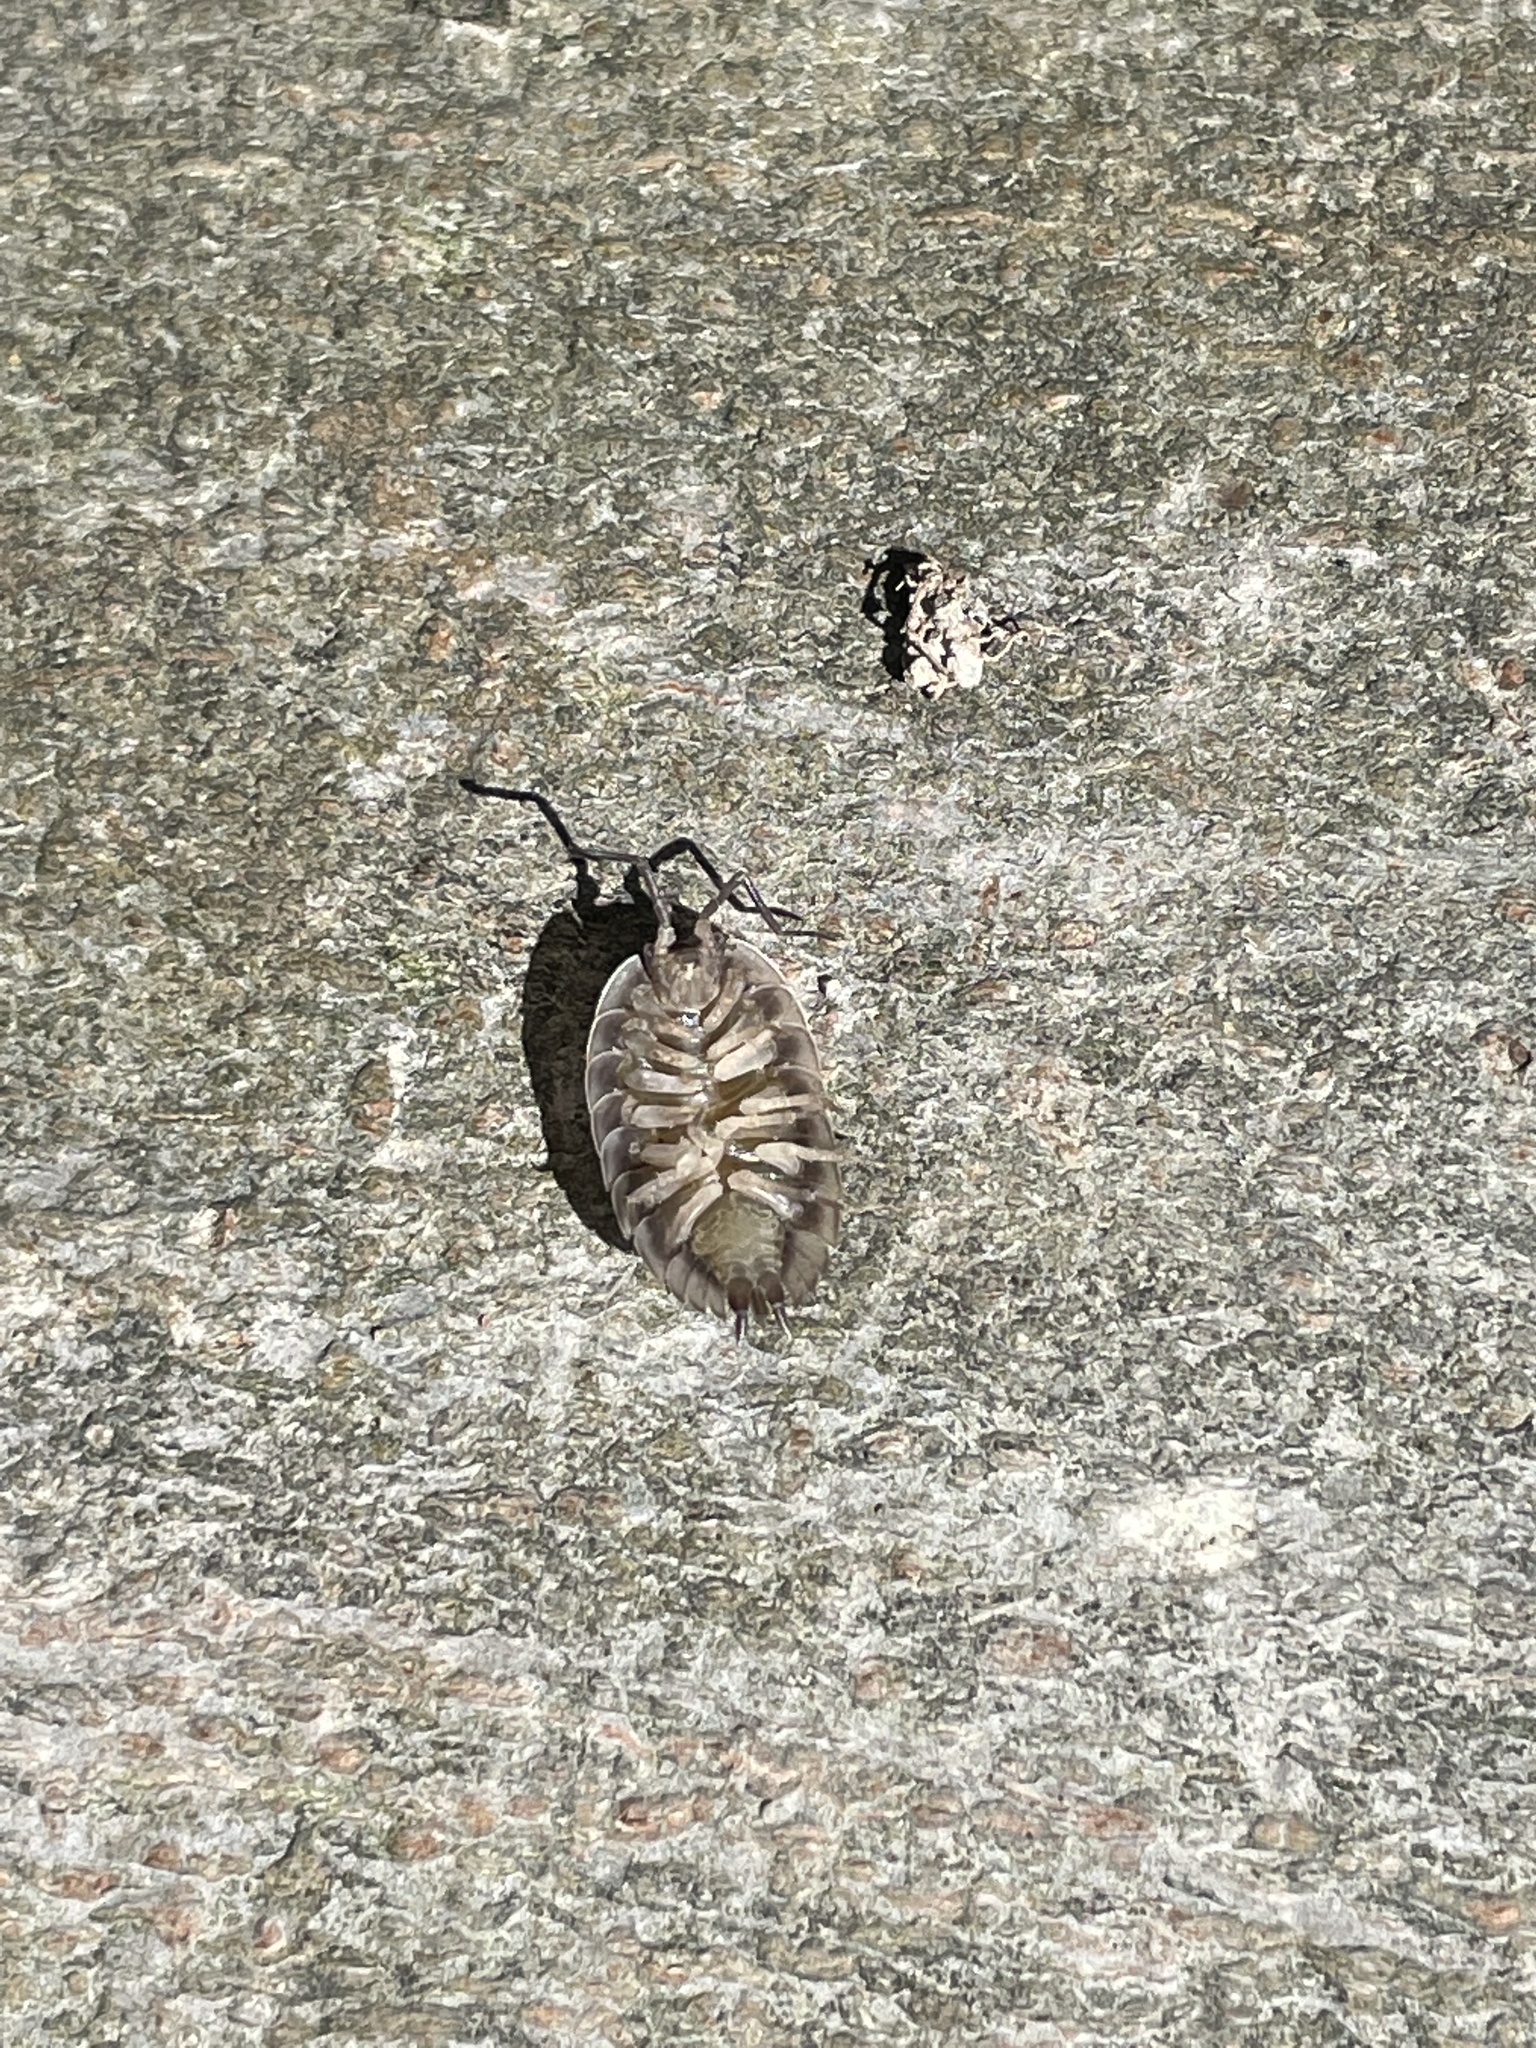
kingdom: Animalia
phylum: Arthropoda
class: Malacostraca
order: Isopoda
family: Oniscidae
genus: Oniscus
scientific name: Oniscus asellus
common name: Common shiny woodlouse
